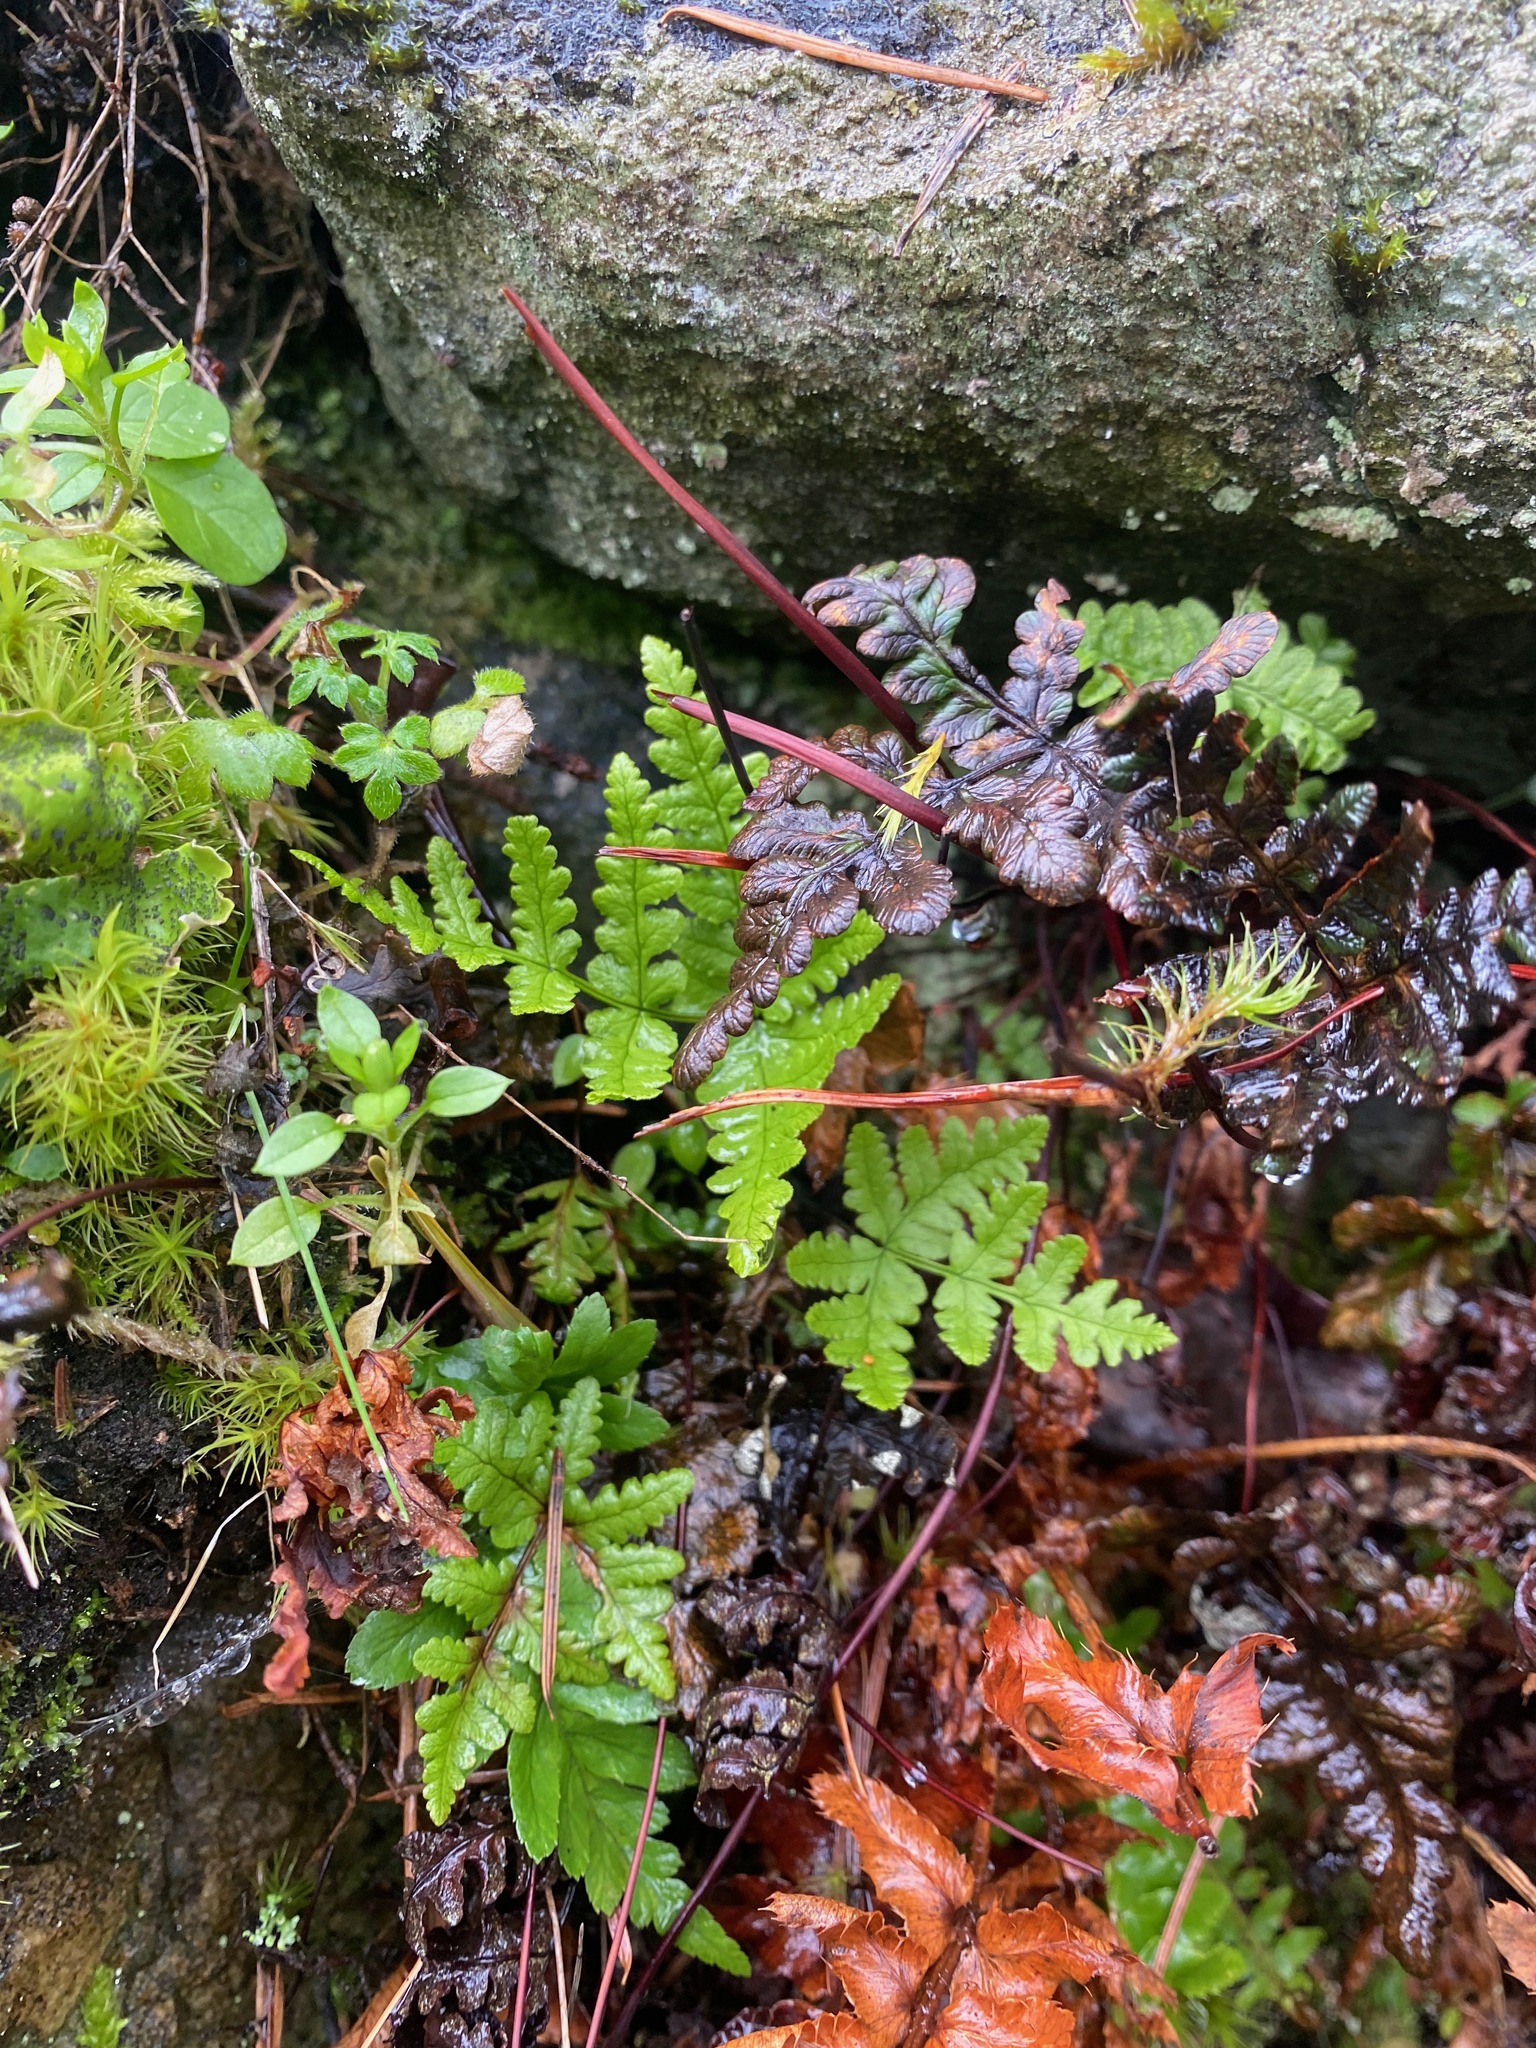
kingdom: Plantae
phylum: Tracheophyta
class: Polypodiopsida
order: Polypodiales
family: Pteridaceae
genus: Pentagramma
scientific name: Pentagramma triangularis
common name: Gold fern
